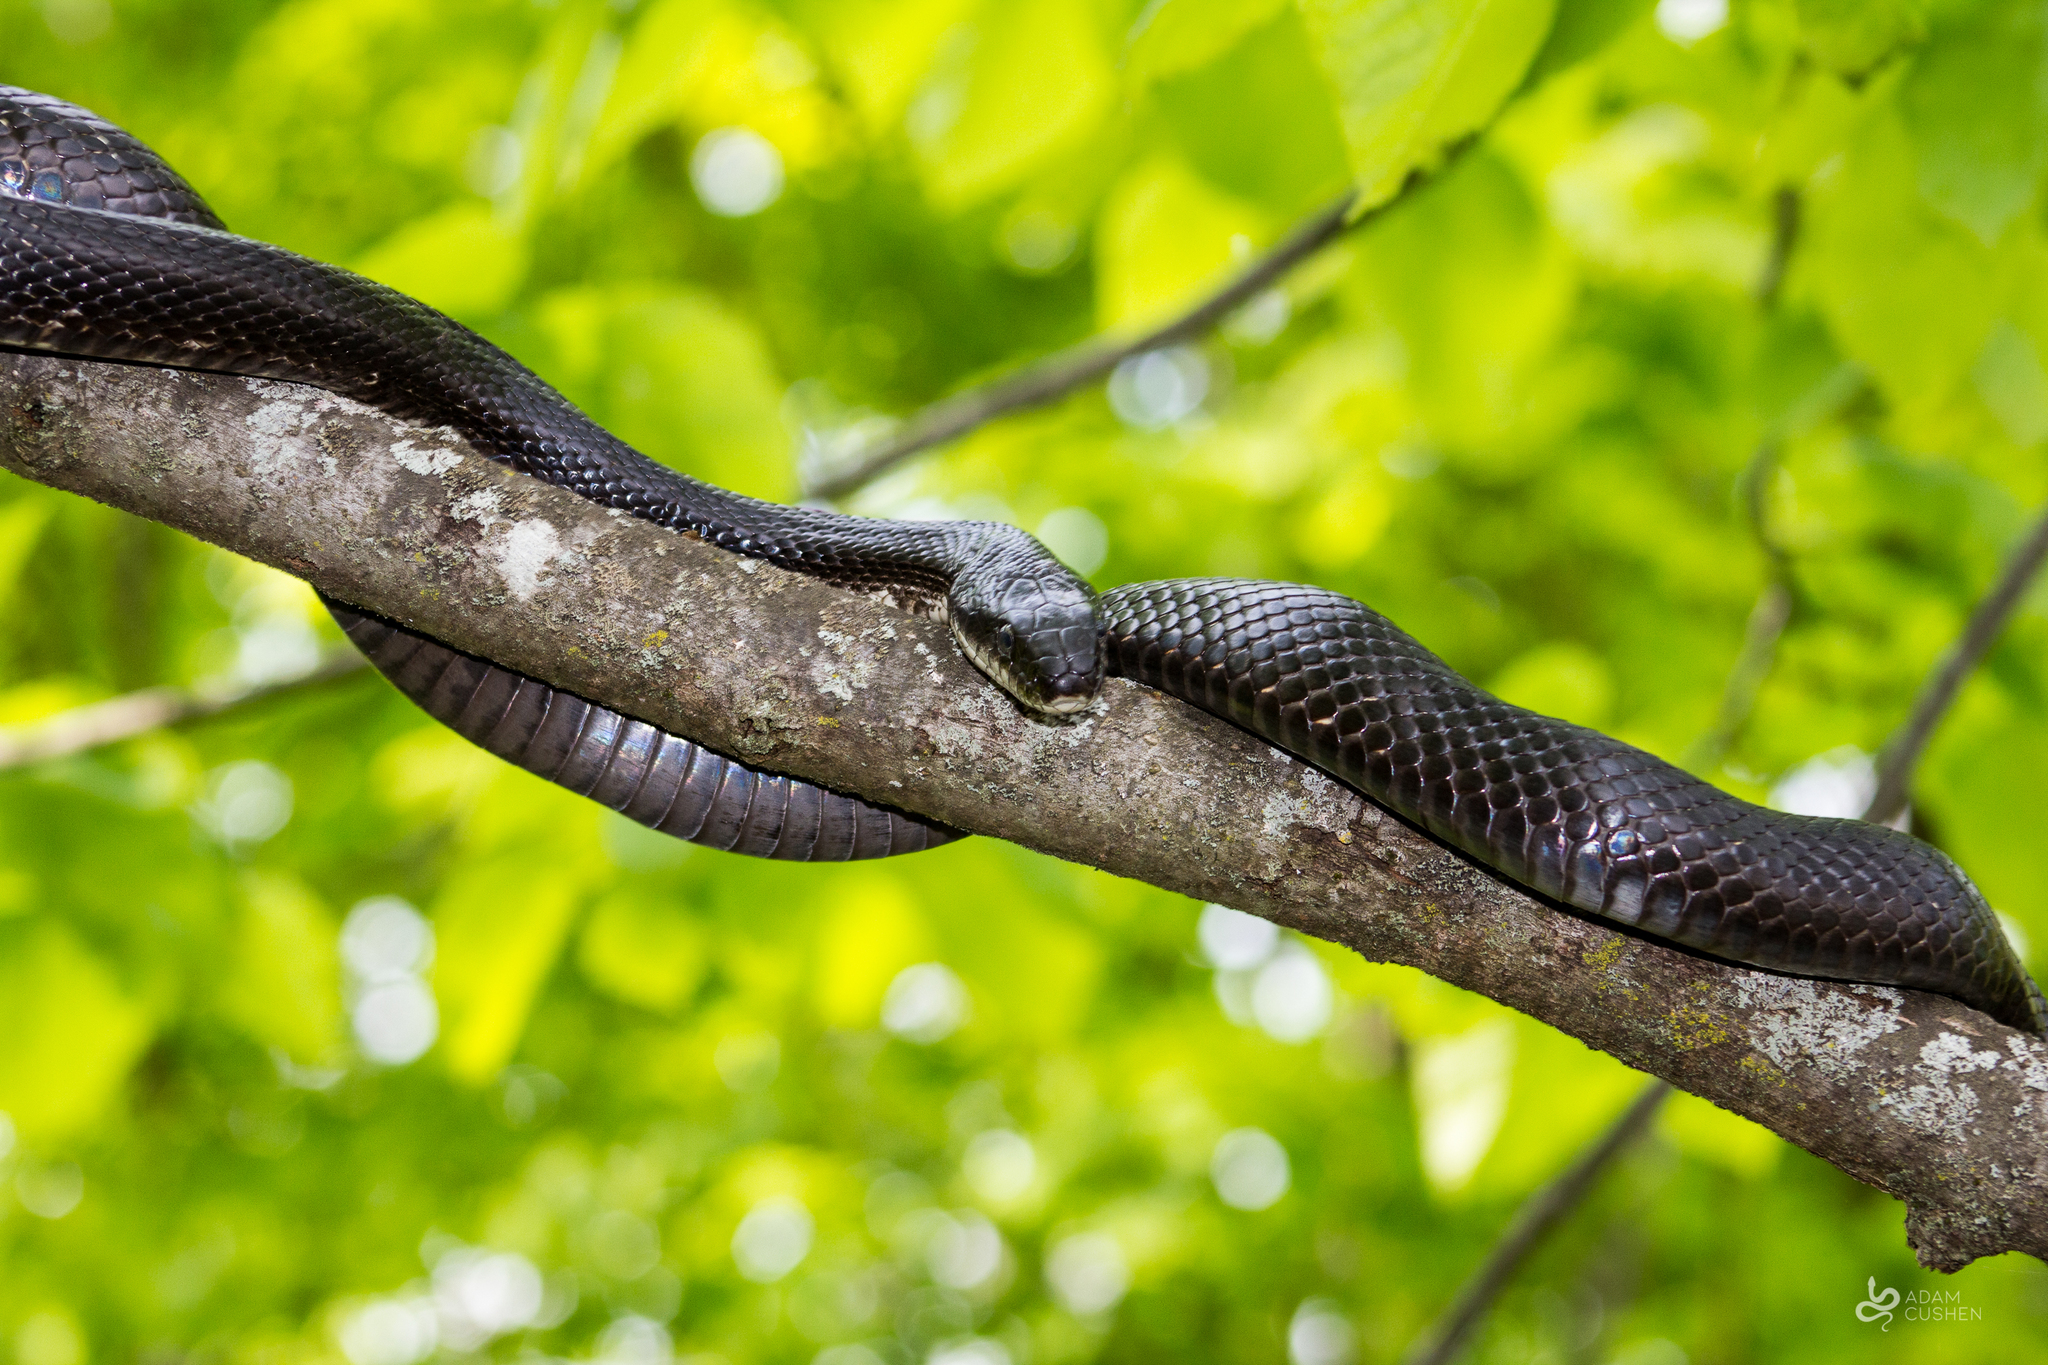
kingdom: Animalia
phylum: Chordata
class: Squamata
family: Colubridae
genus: Pantherophis
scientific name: Pantherophis spiloides
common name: Gray rat snake
